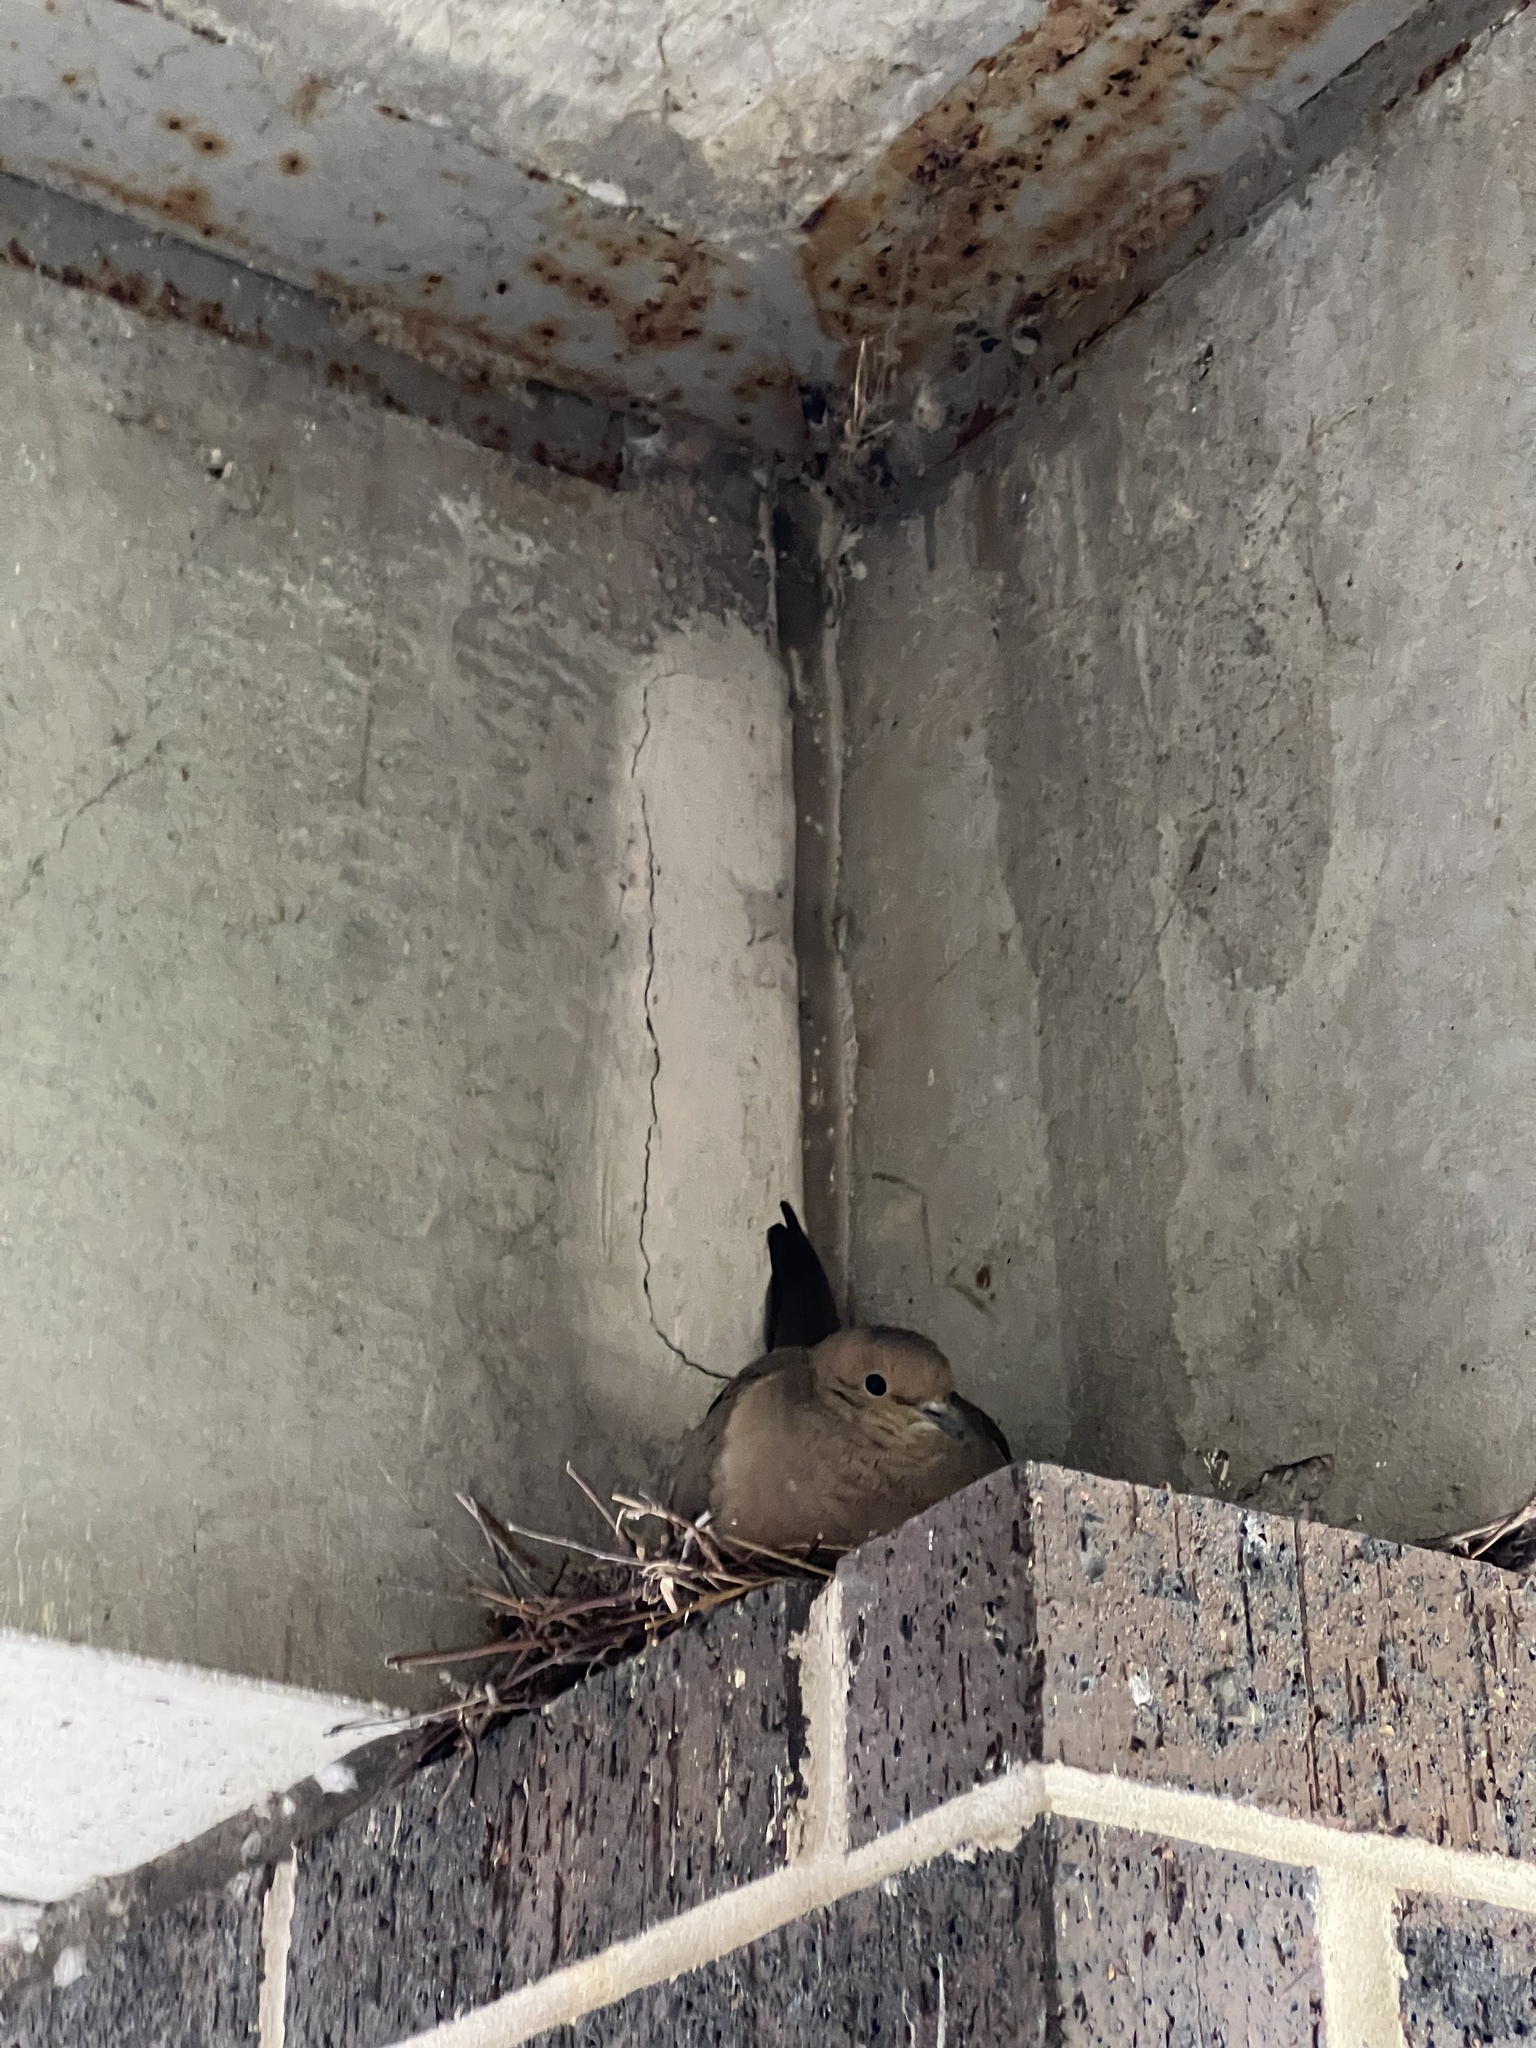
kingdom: Animalia
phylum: Chordata
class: Aves
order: Columbiformes
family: Columbidae
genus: Zenaida
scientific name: Zenaida macroura
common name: Mourning dove
